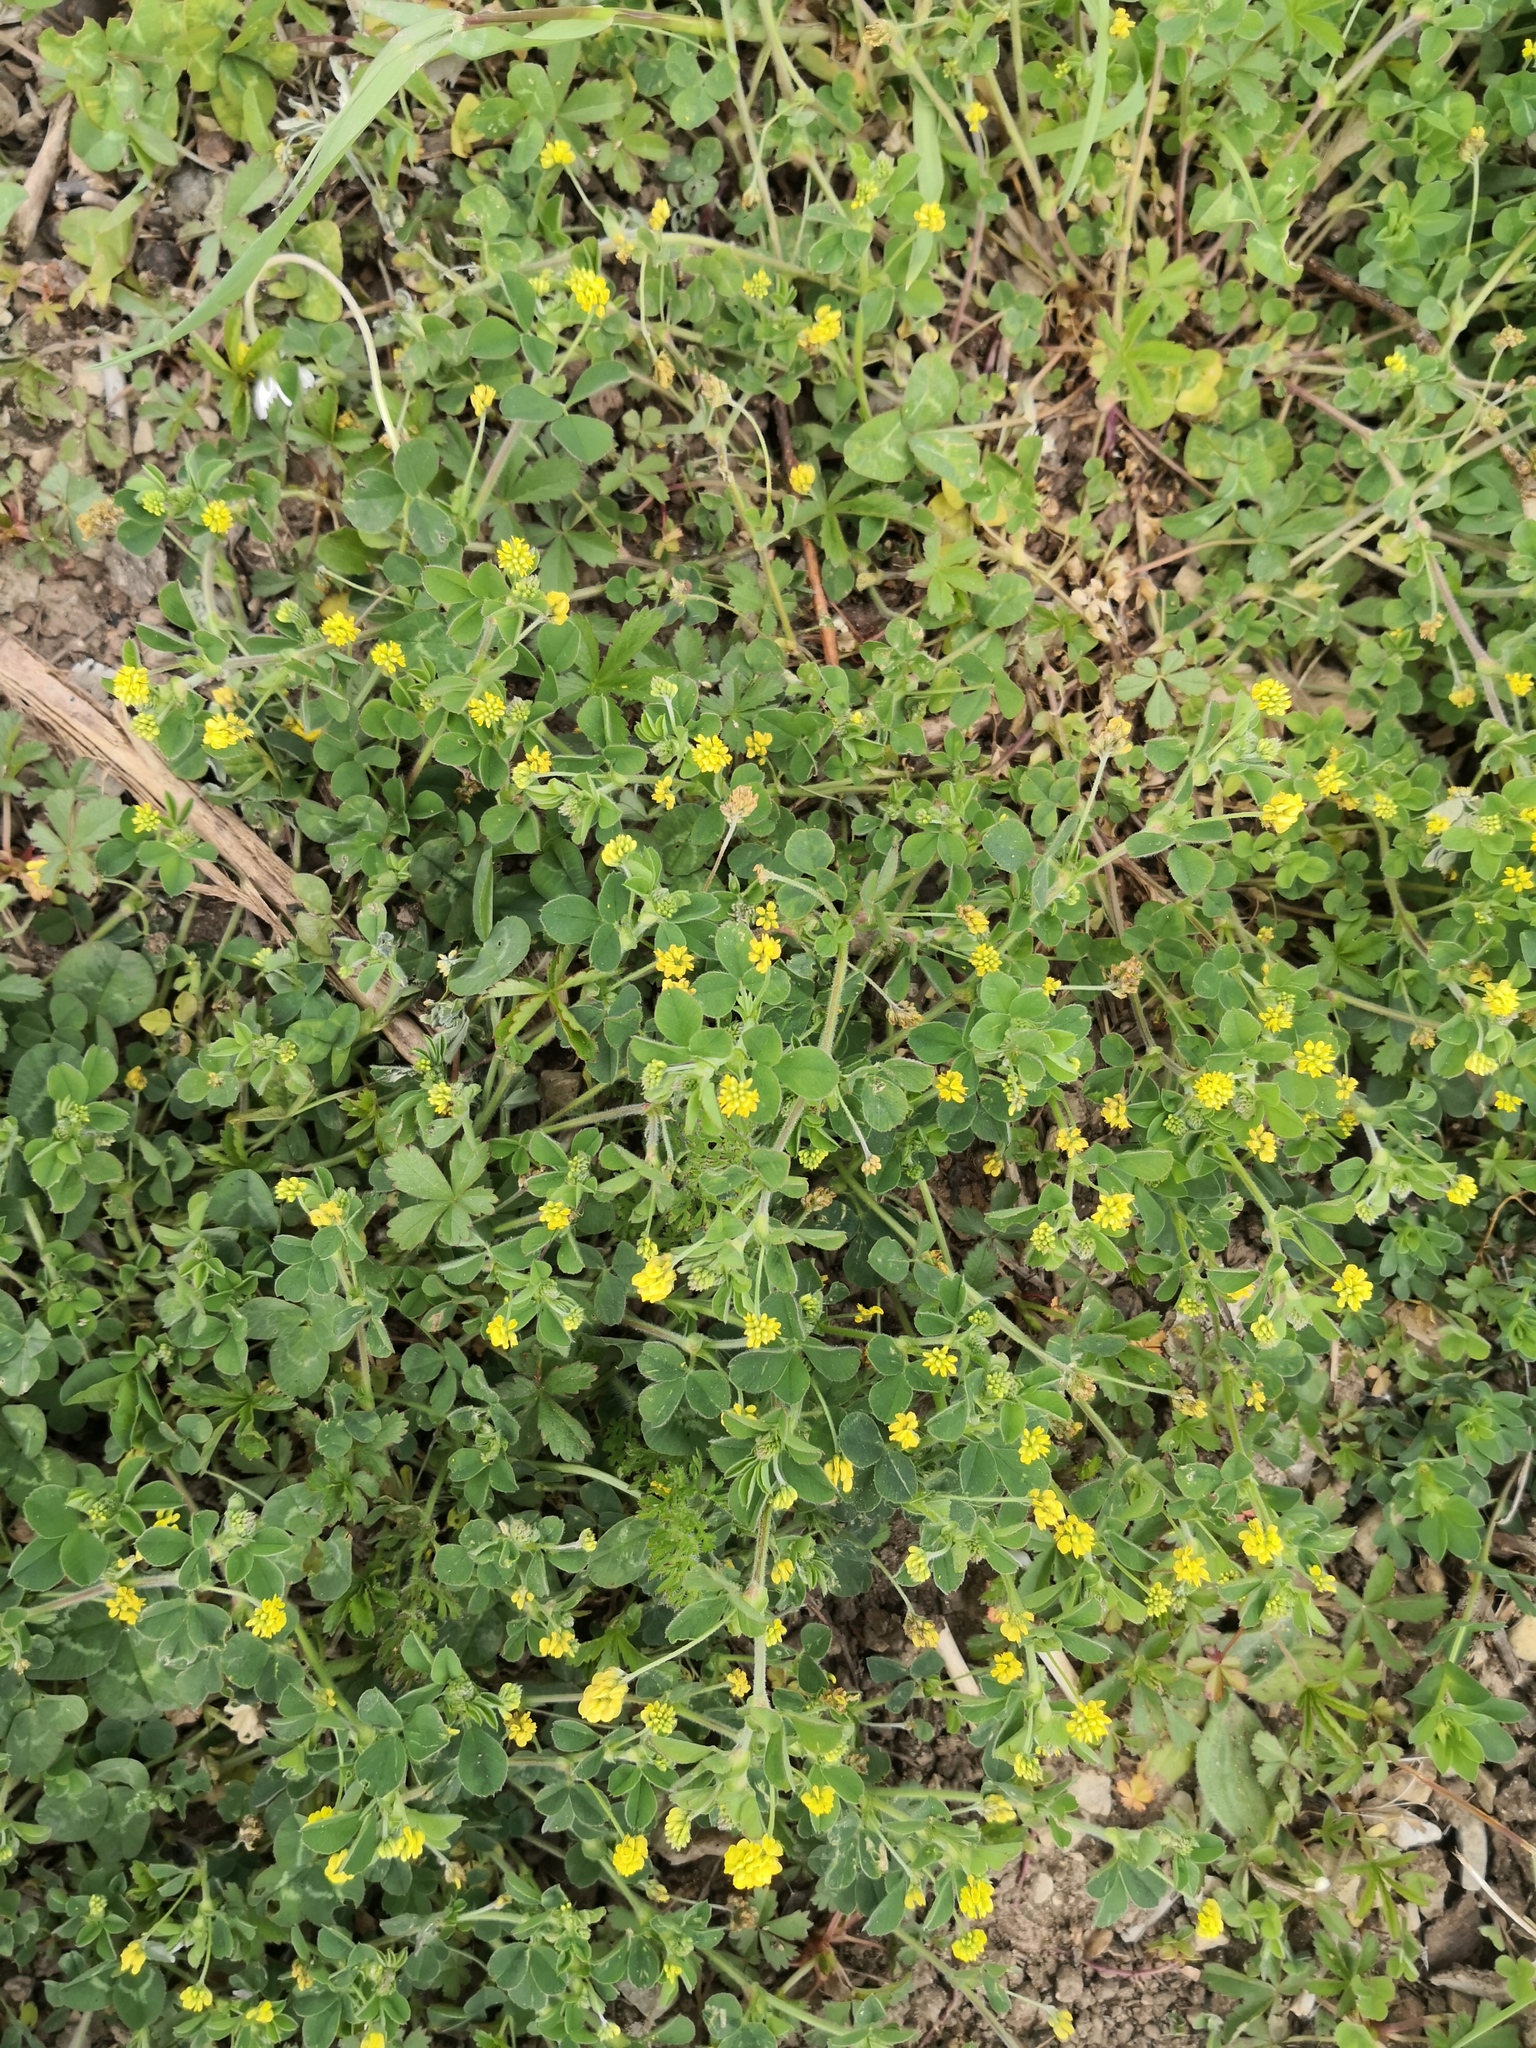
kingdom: Plantae
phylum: Tracheophyta
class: Magnoliopsida
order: Fabales
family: Fabaceae
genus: Medicago
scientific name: Medicago lupulina
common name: Black medick
